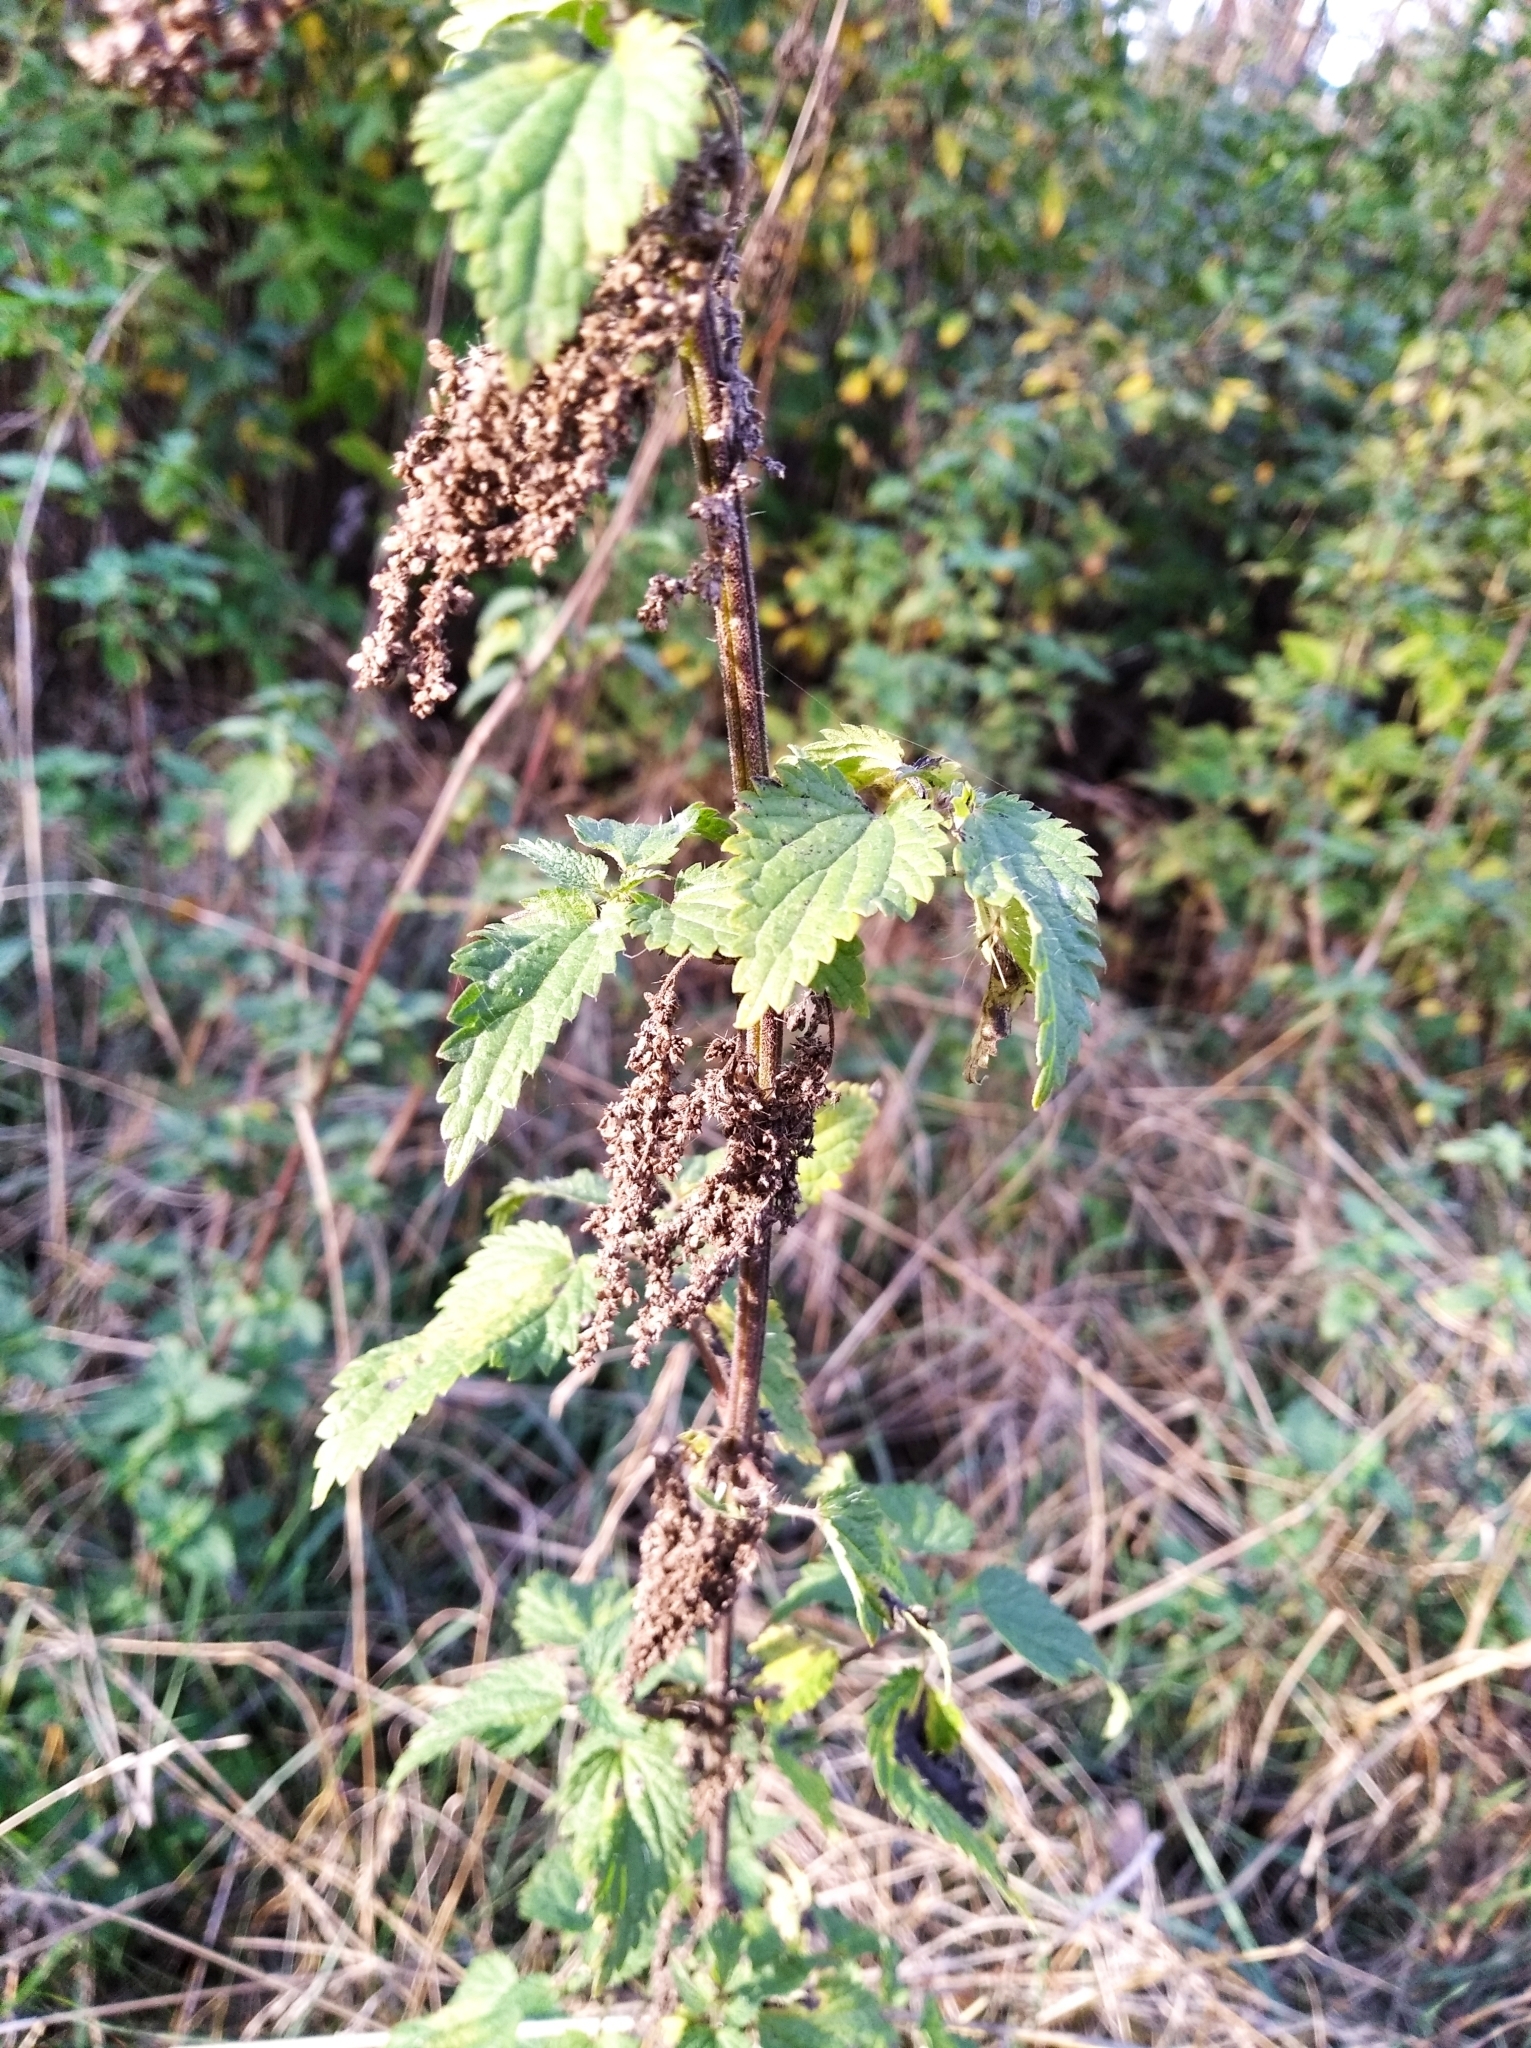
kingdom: Plantae
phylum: Tracheophyta
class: Magnoliopsida
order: Rosales
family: Urticaceae
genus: Urtica
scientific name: Urtica dioica
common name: Common nettle
